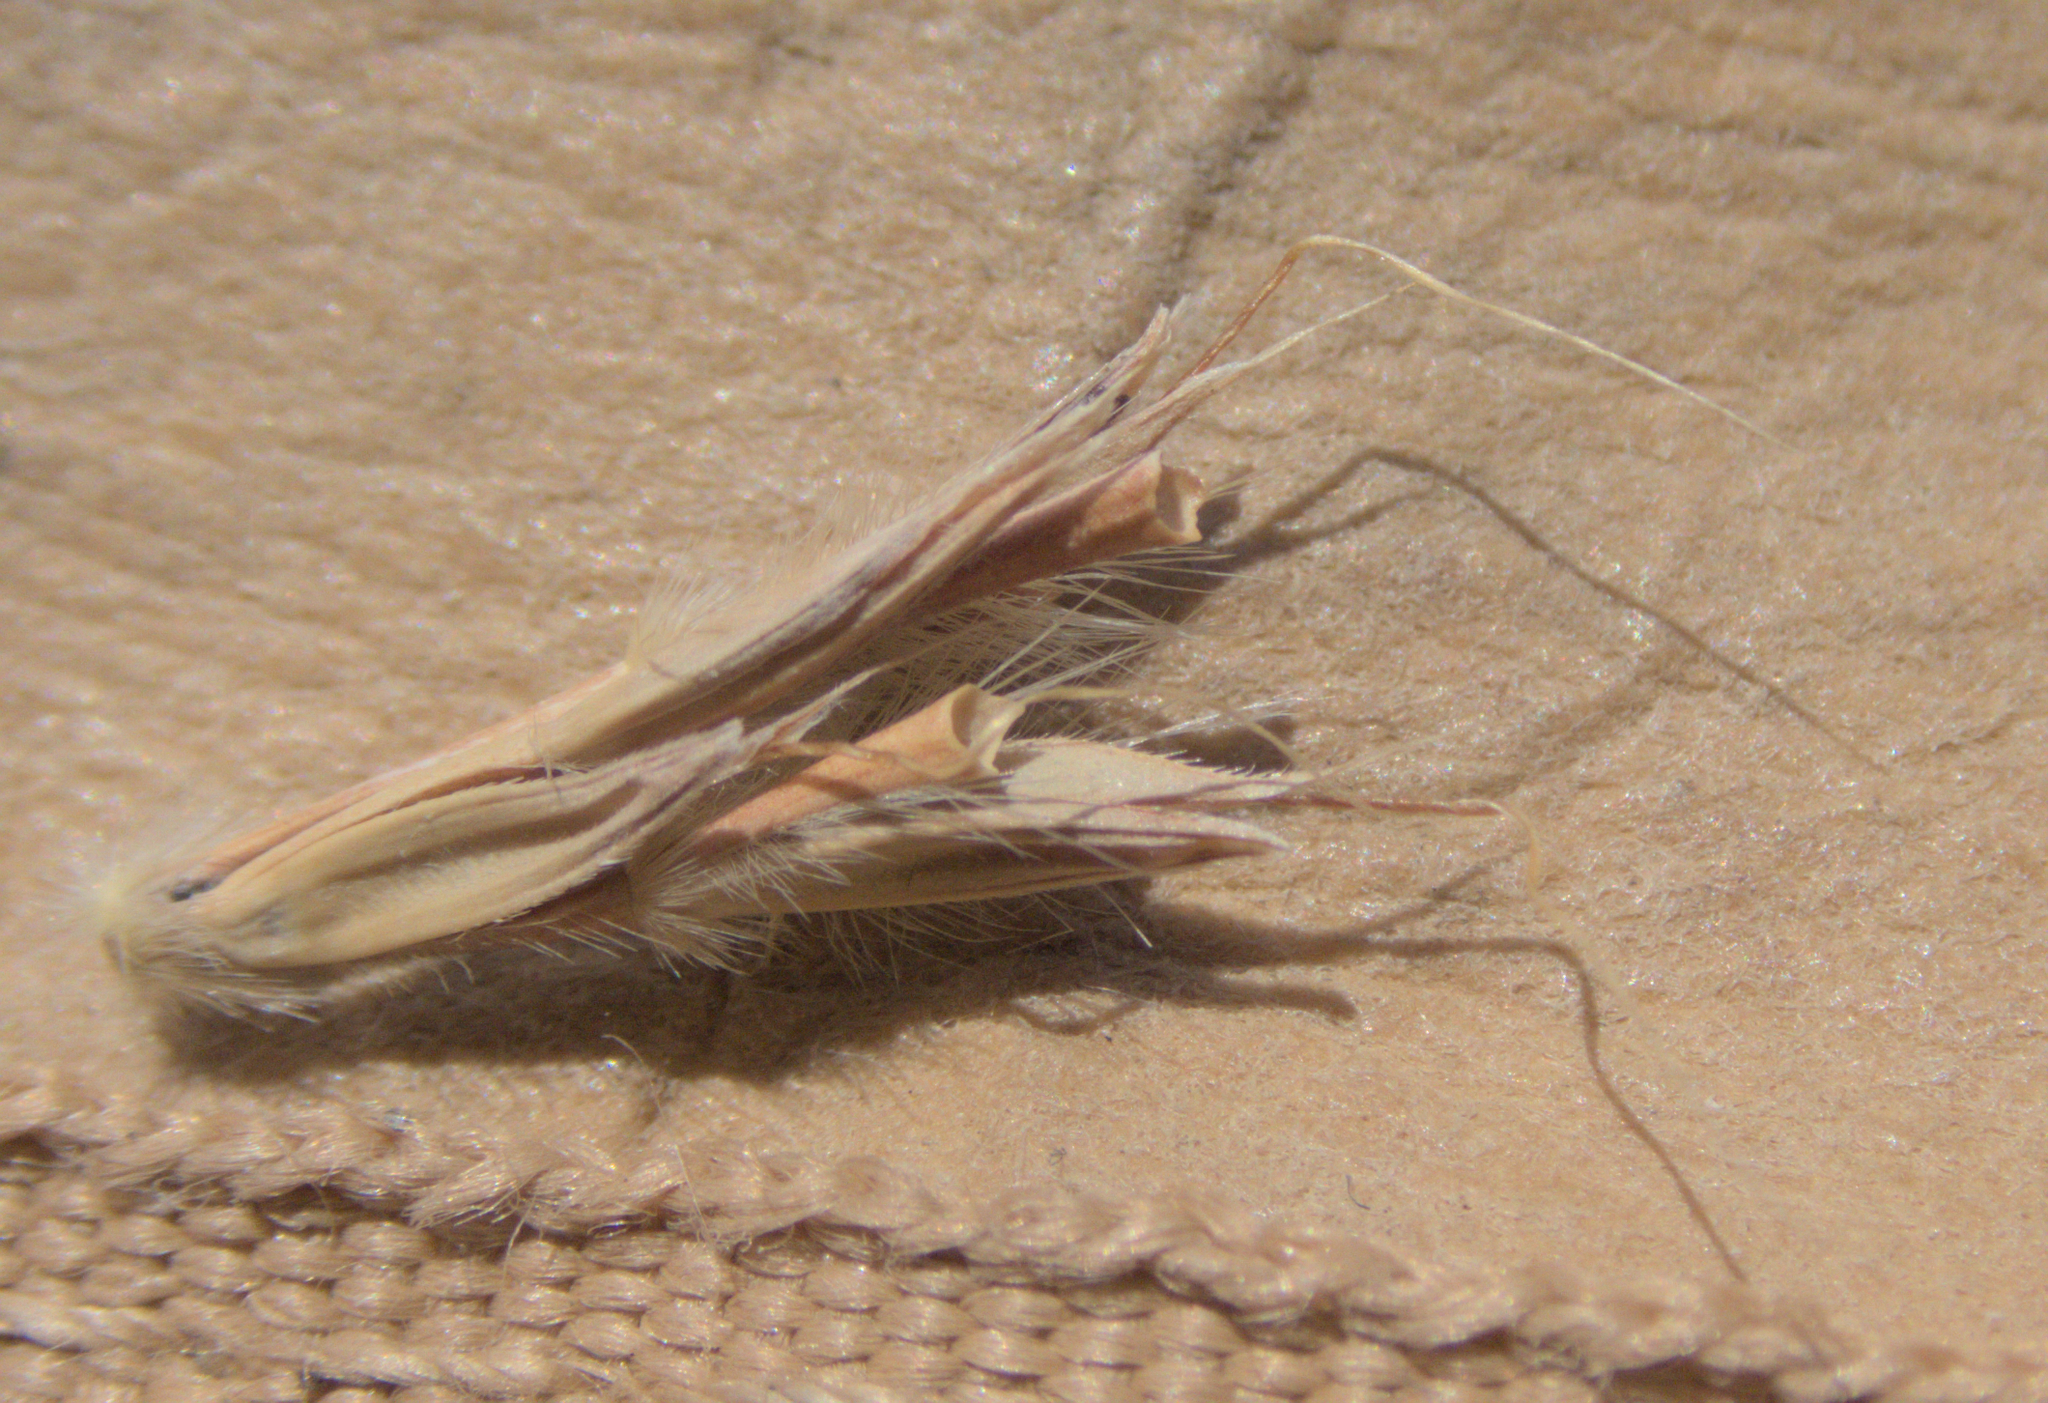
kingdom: Plantae
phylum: Tracheophyta
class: Liliopsida
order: Poales
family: Poaceae
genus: Andropogon
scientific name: Andropogon gerardi
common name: Big bluestem
